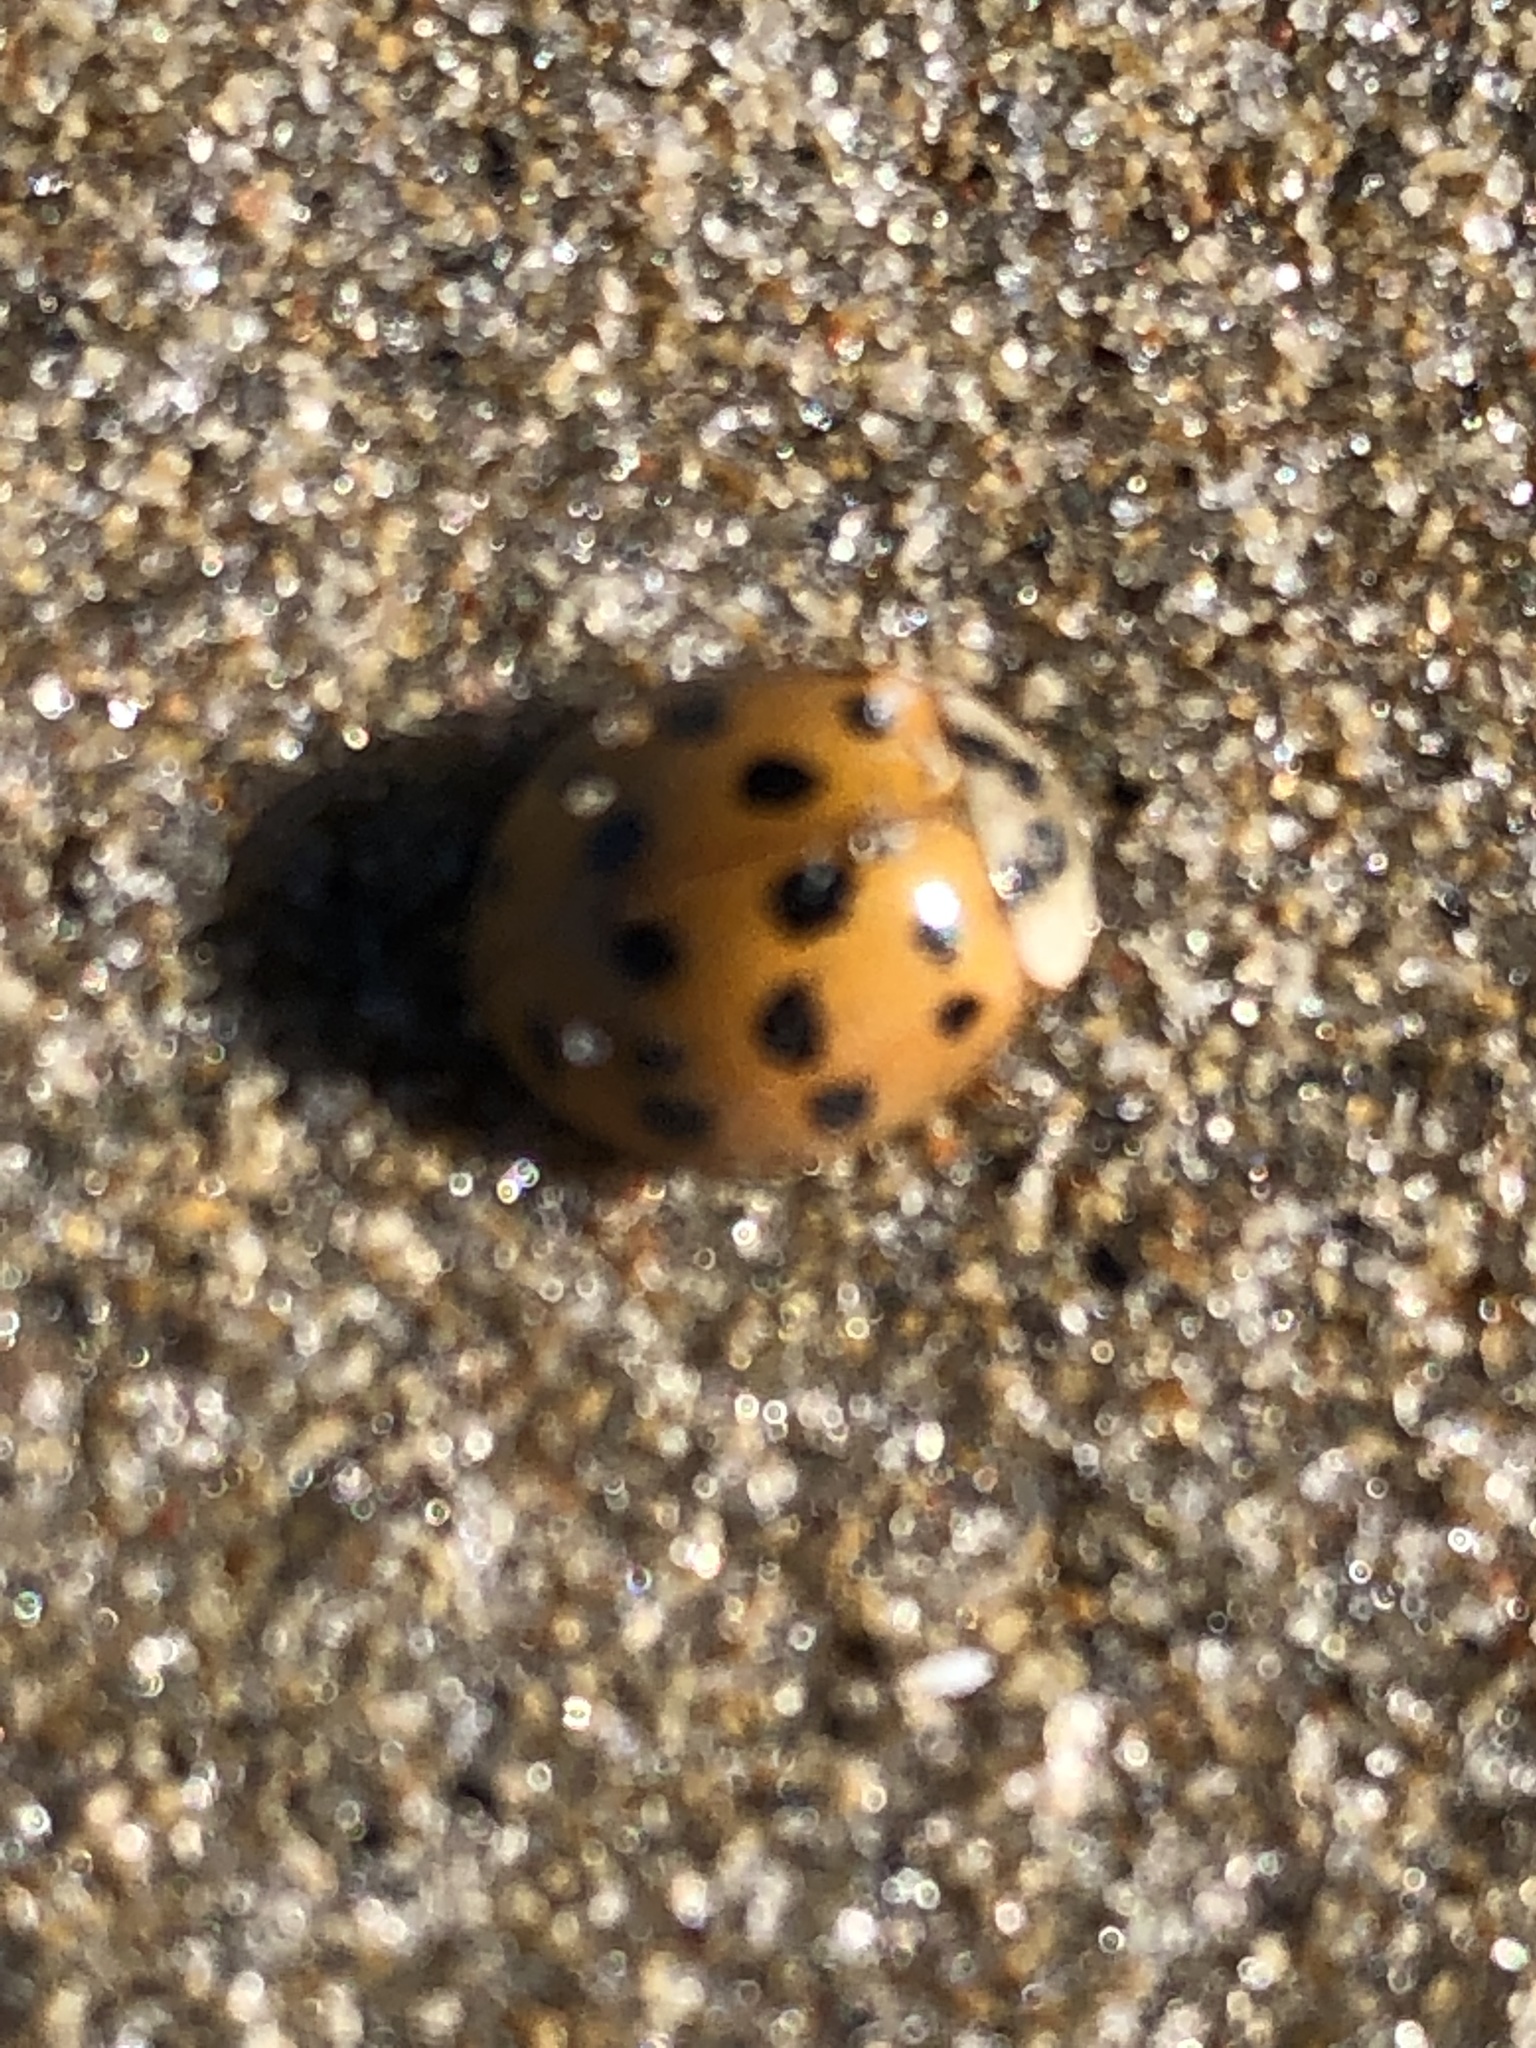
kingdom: Animalia
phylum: Arthropoda
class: Insecta
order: Coleoptera
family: Coccinellidae
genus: Harmonia
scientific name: Harmonia axyridis
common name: Harlequin ladybird
